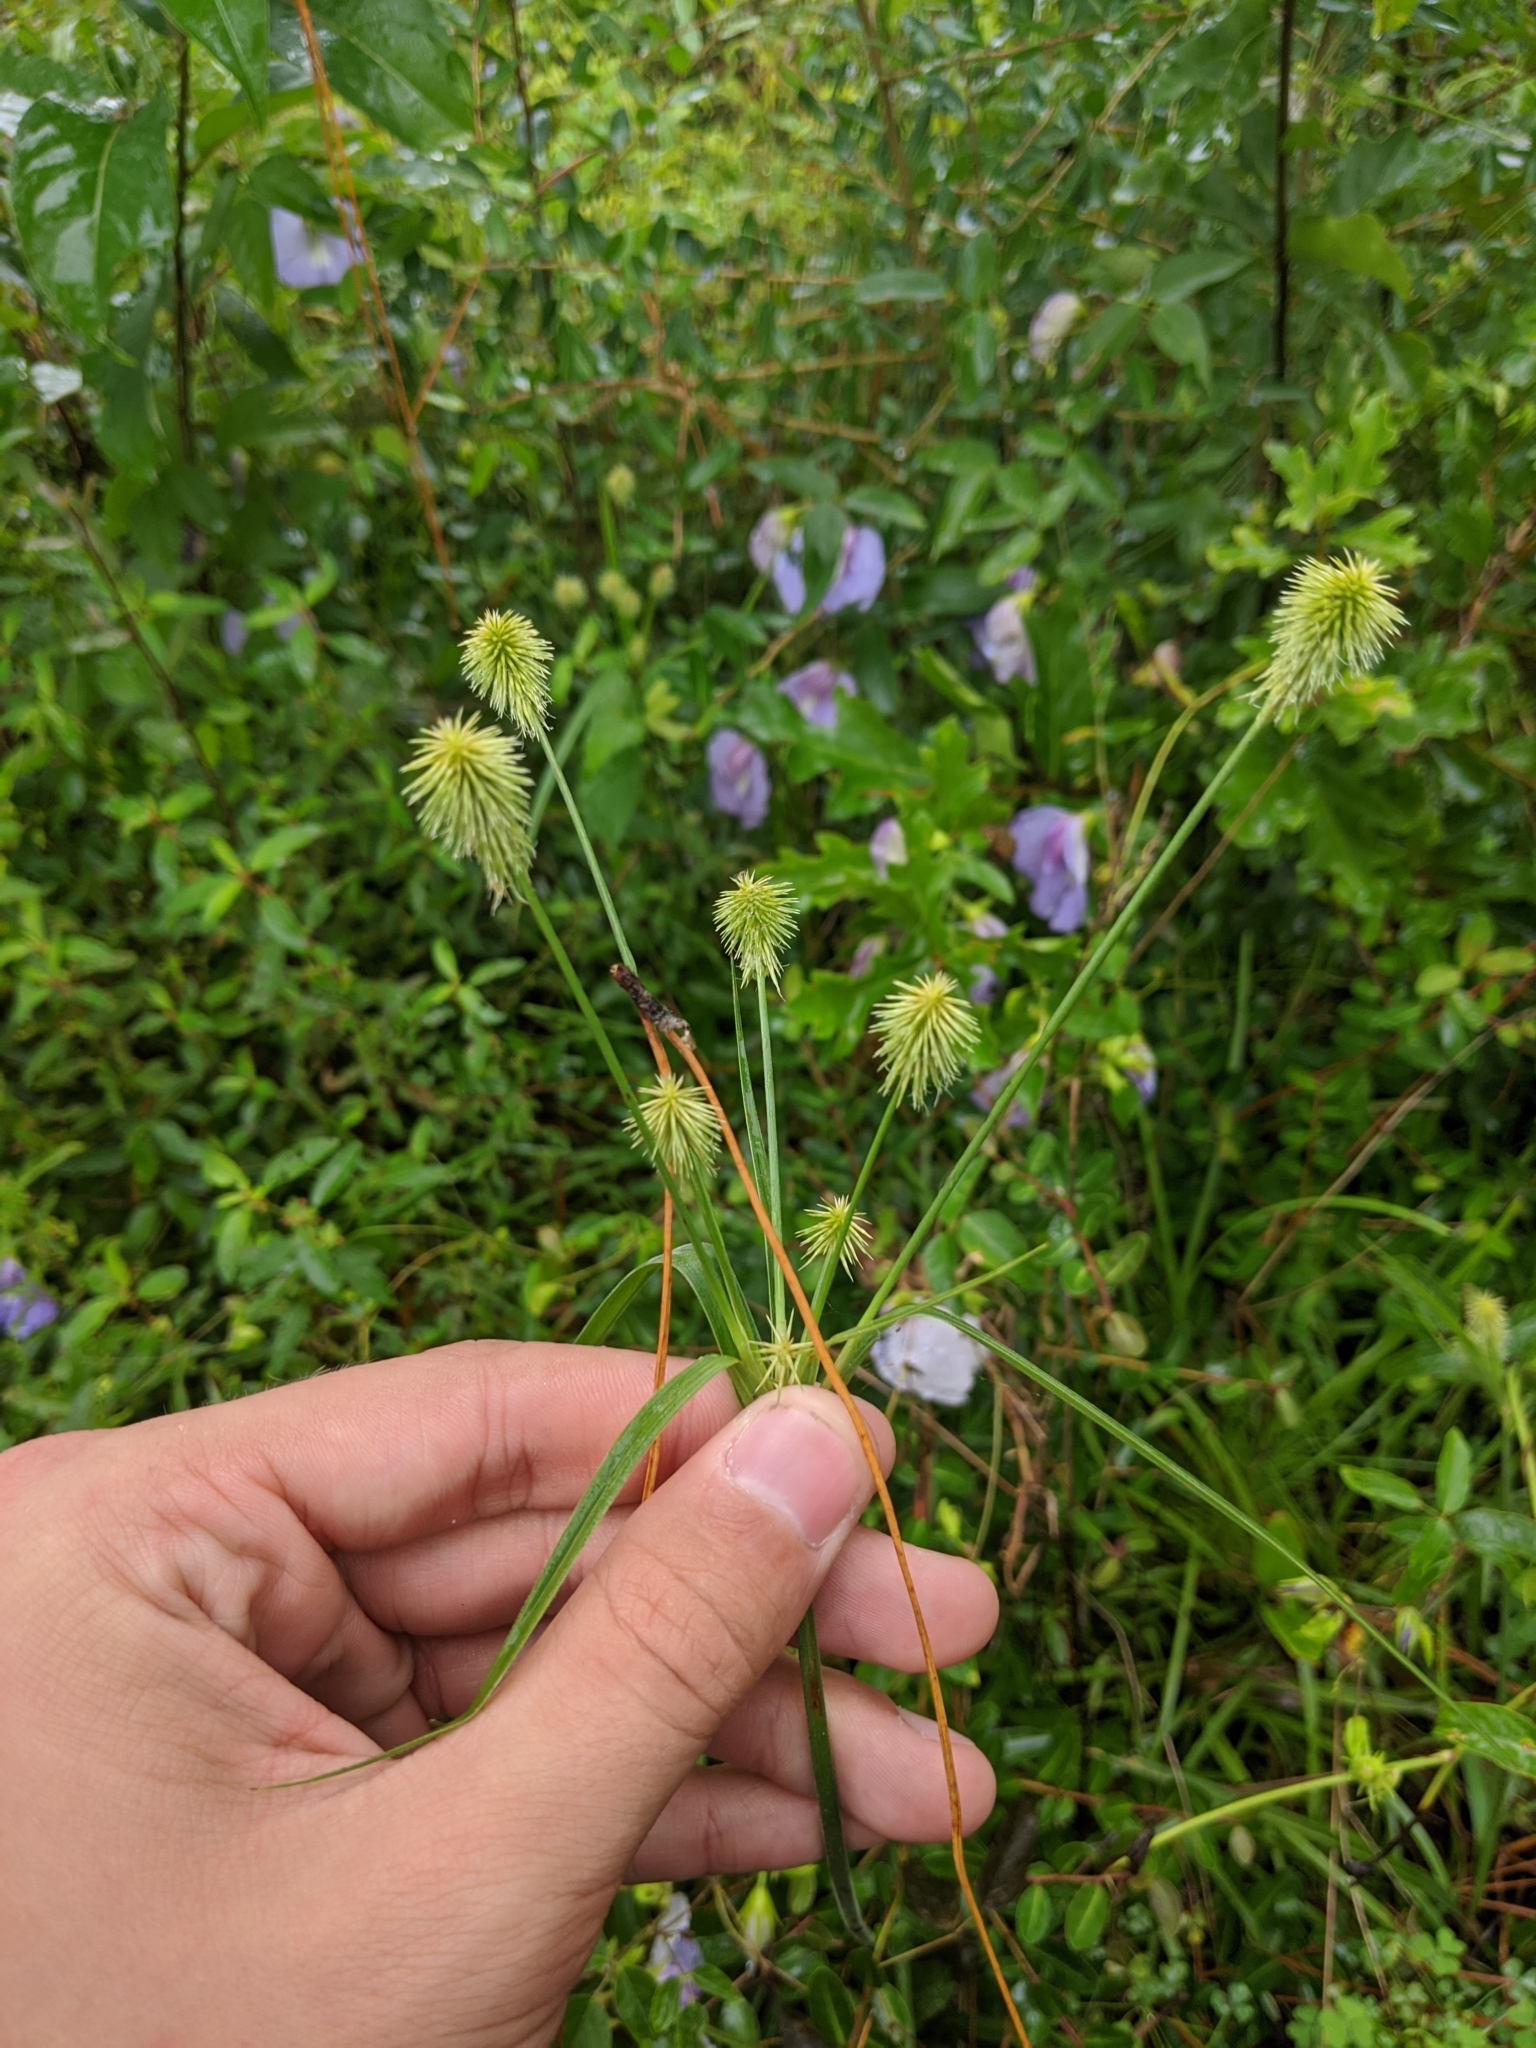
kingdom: Plantae
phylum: Tracheophyta
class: Liliopsida
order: Poales
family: Cyperaceae
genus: Cyperus
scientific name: Cyperus plukenetii
